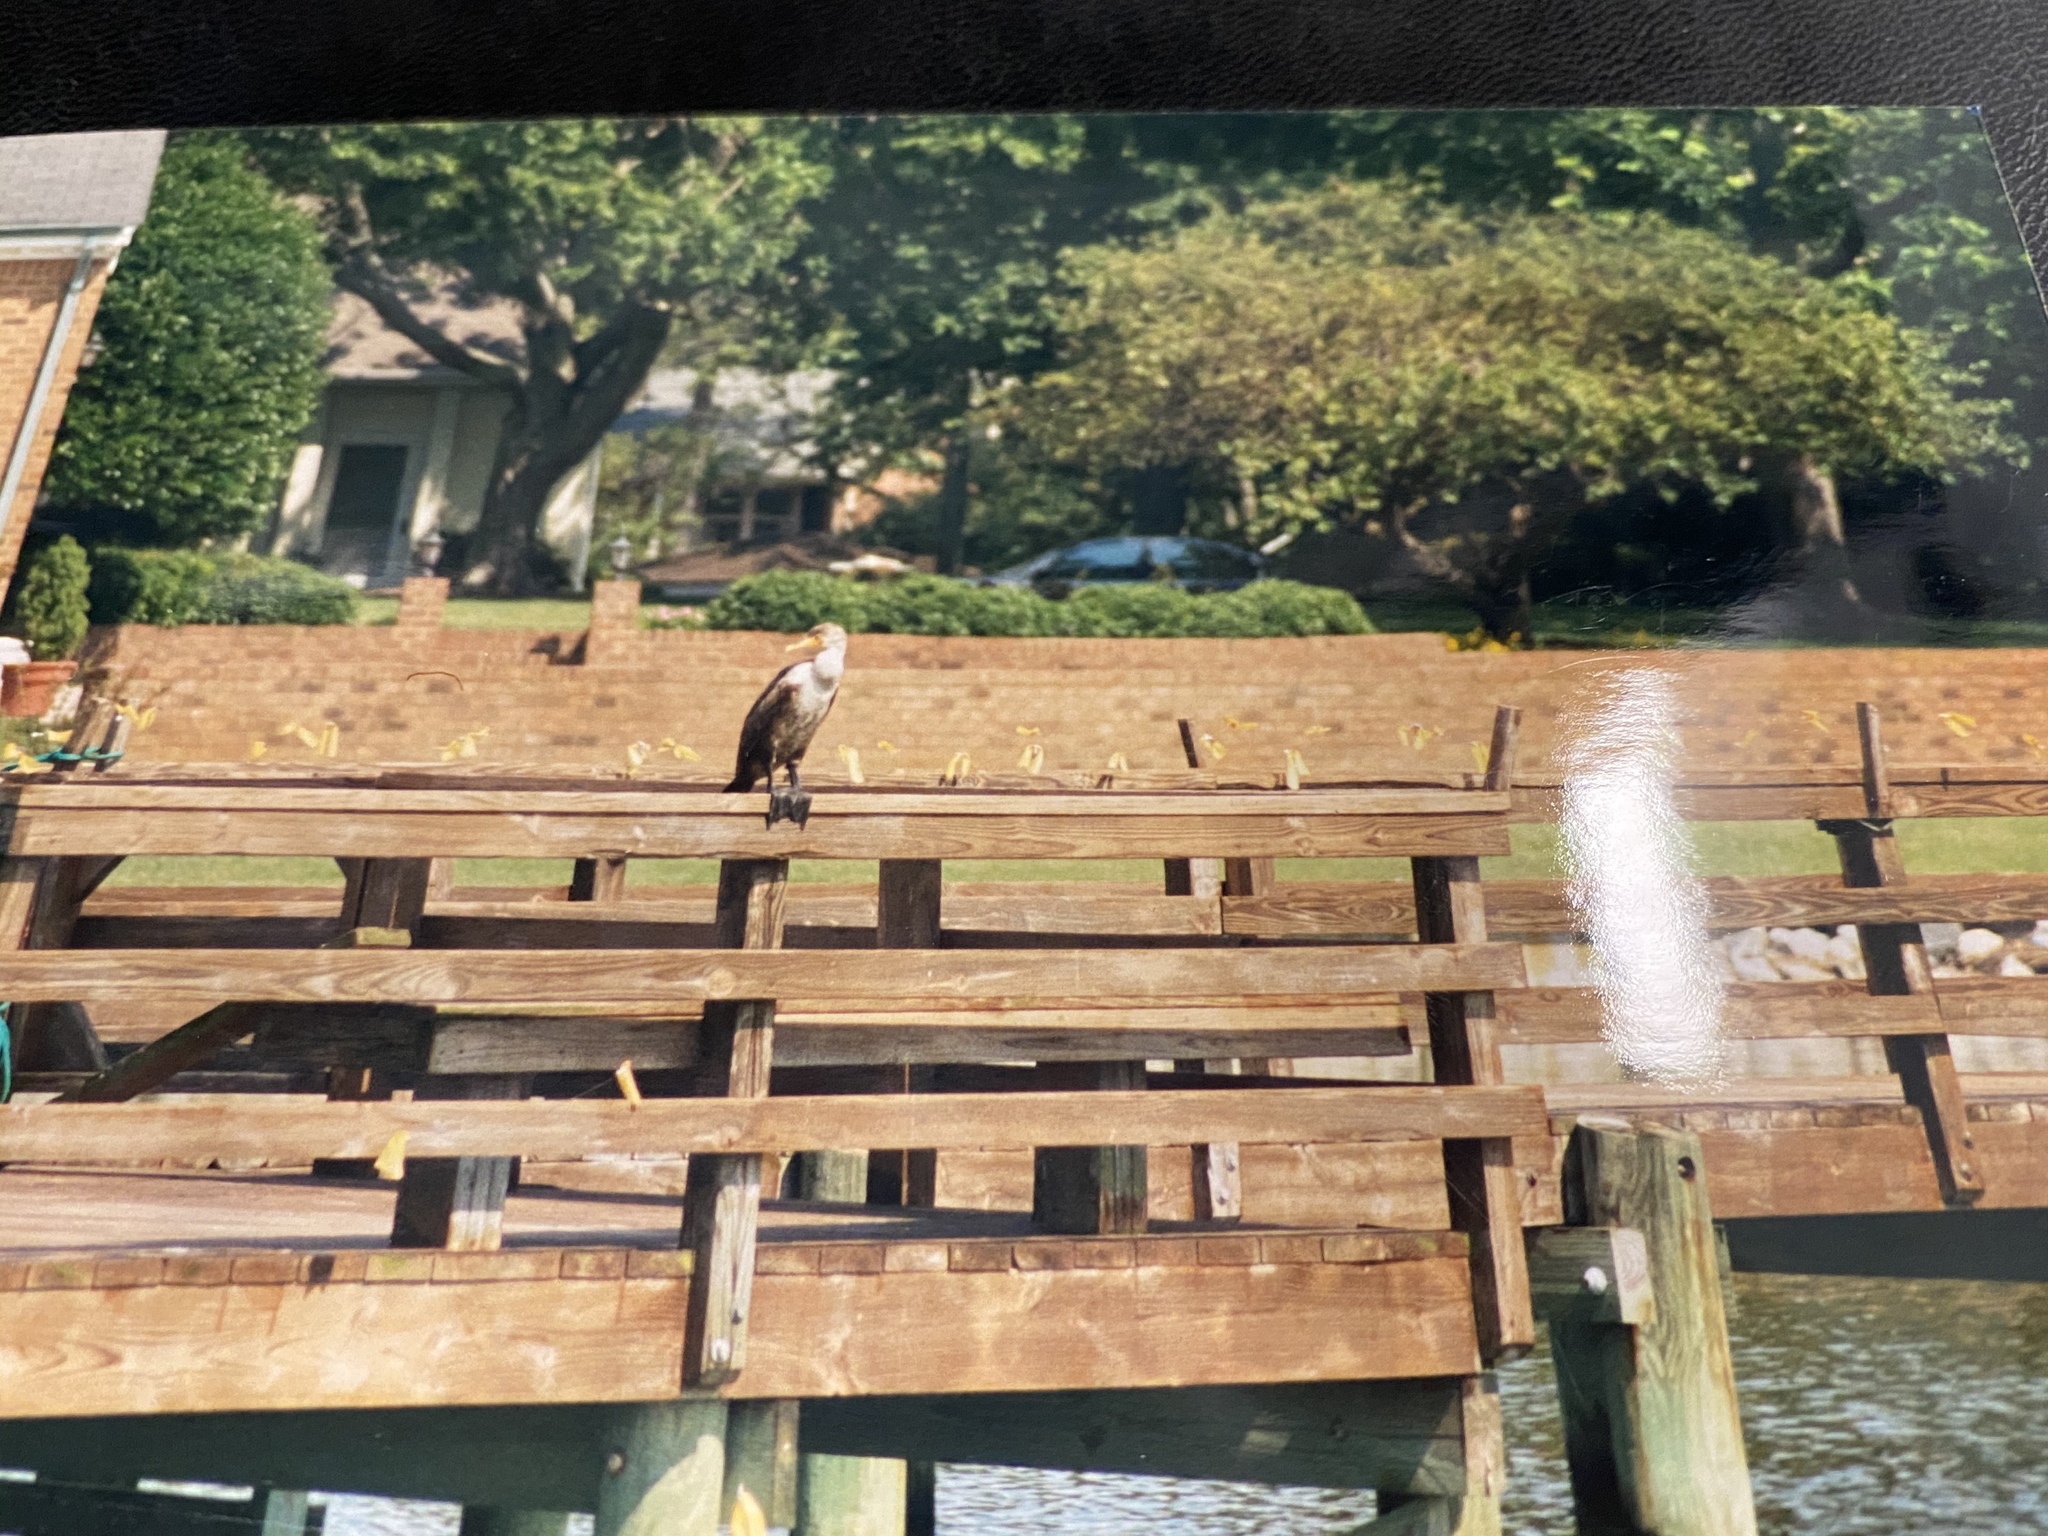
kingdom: Animalia
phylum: Chordata
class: Aves
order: Suliformes
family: Phalacrocoracidae
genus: Phalacrocorax
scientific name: Phalacrocorax auritus
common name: Double-crested cormorant
